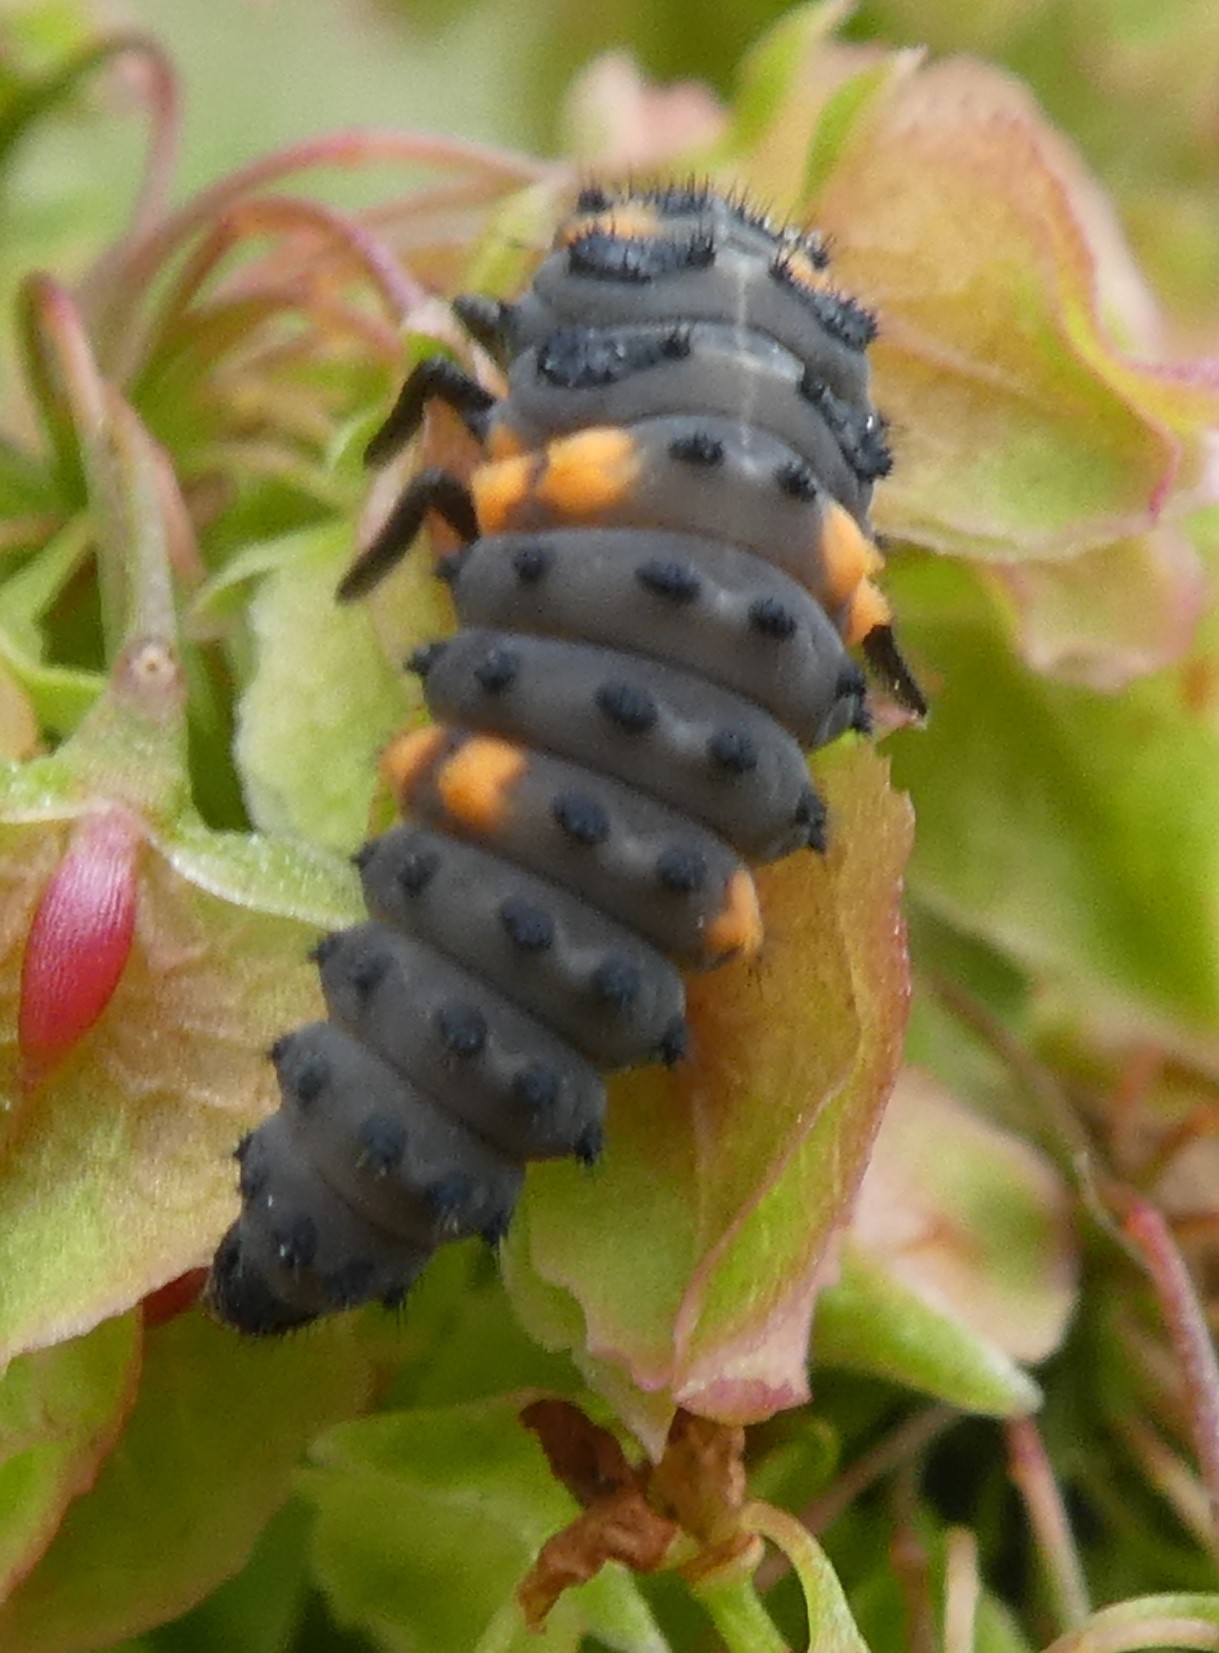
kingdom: Animalia
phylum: Arthropoda
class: Insecta
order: Coleoptera
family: Coccinellidae
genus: Coccinella
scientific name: Coccinella septempunctata
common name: Sevenspotted lady beetle
